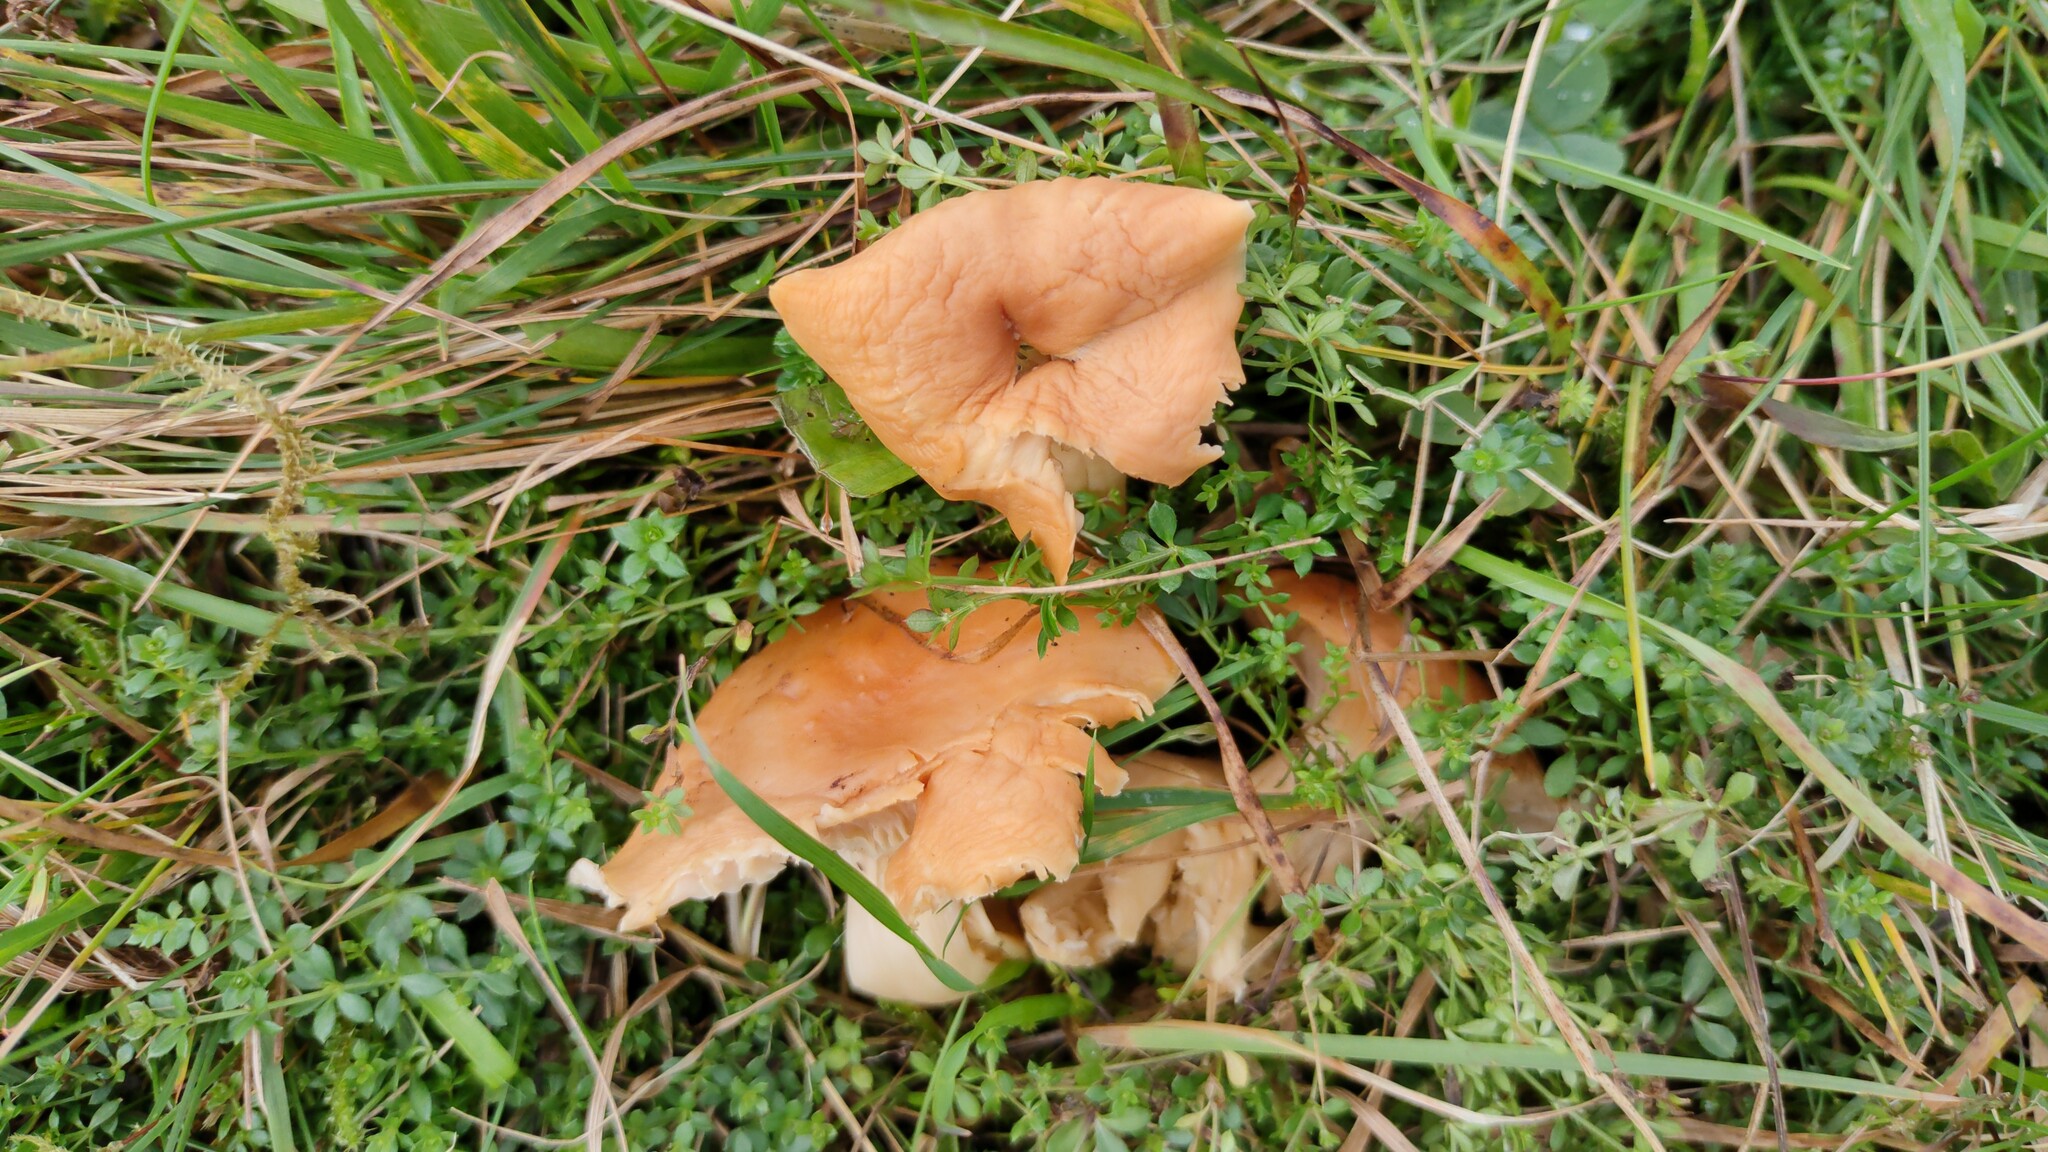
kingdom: Fungi
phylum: Basidiomycota
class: Agaricomycetes
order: Agaricales
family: Hygrophoraceae
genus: Cuphophyllus
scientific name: Cuphophyllus pratensis
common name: Meadow waxcap
